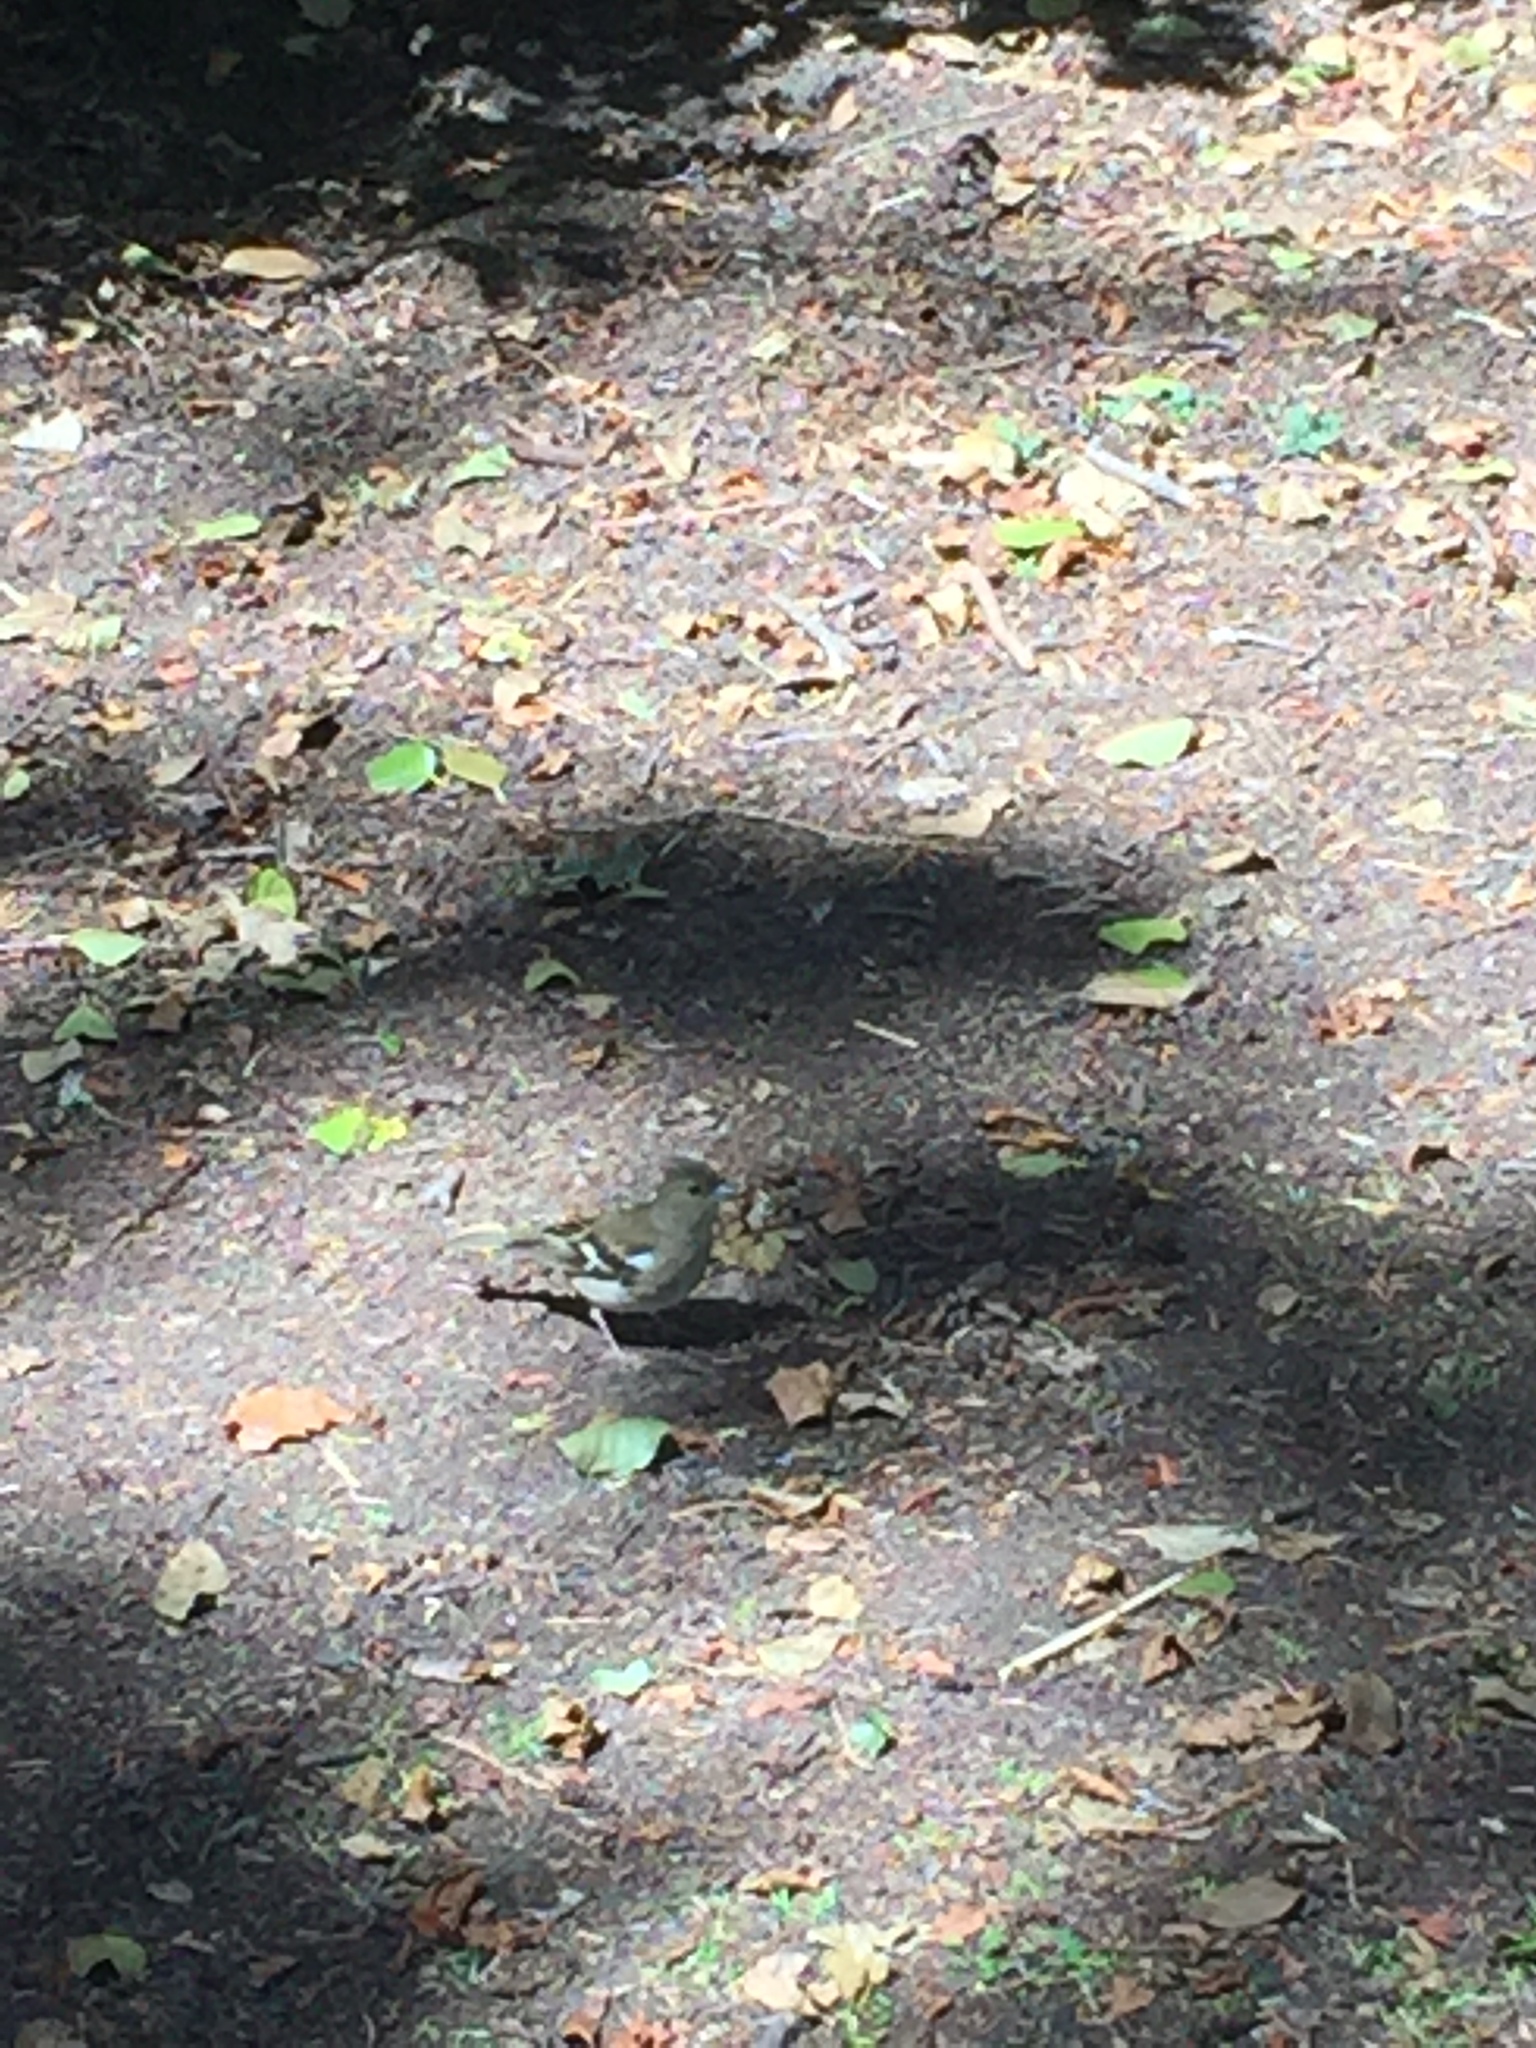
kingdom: Animalia
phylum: Chordata
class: Aves
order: Passeriformes
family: Fringillidae
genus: Fringilla
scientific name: Fringilla coelebs
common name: Common chaffinch
